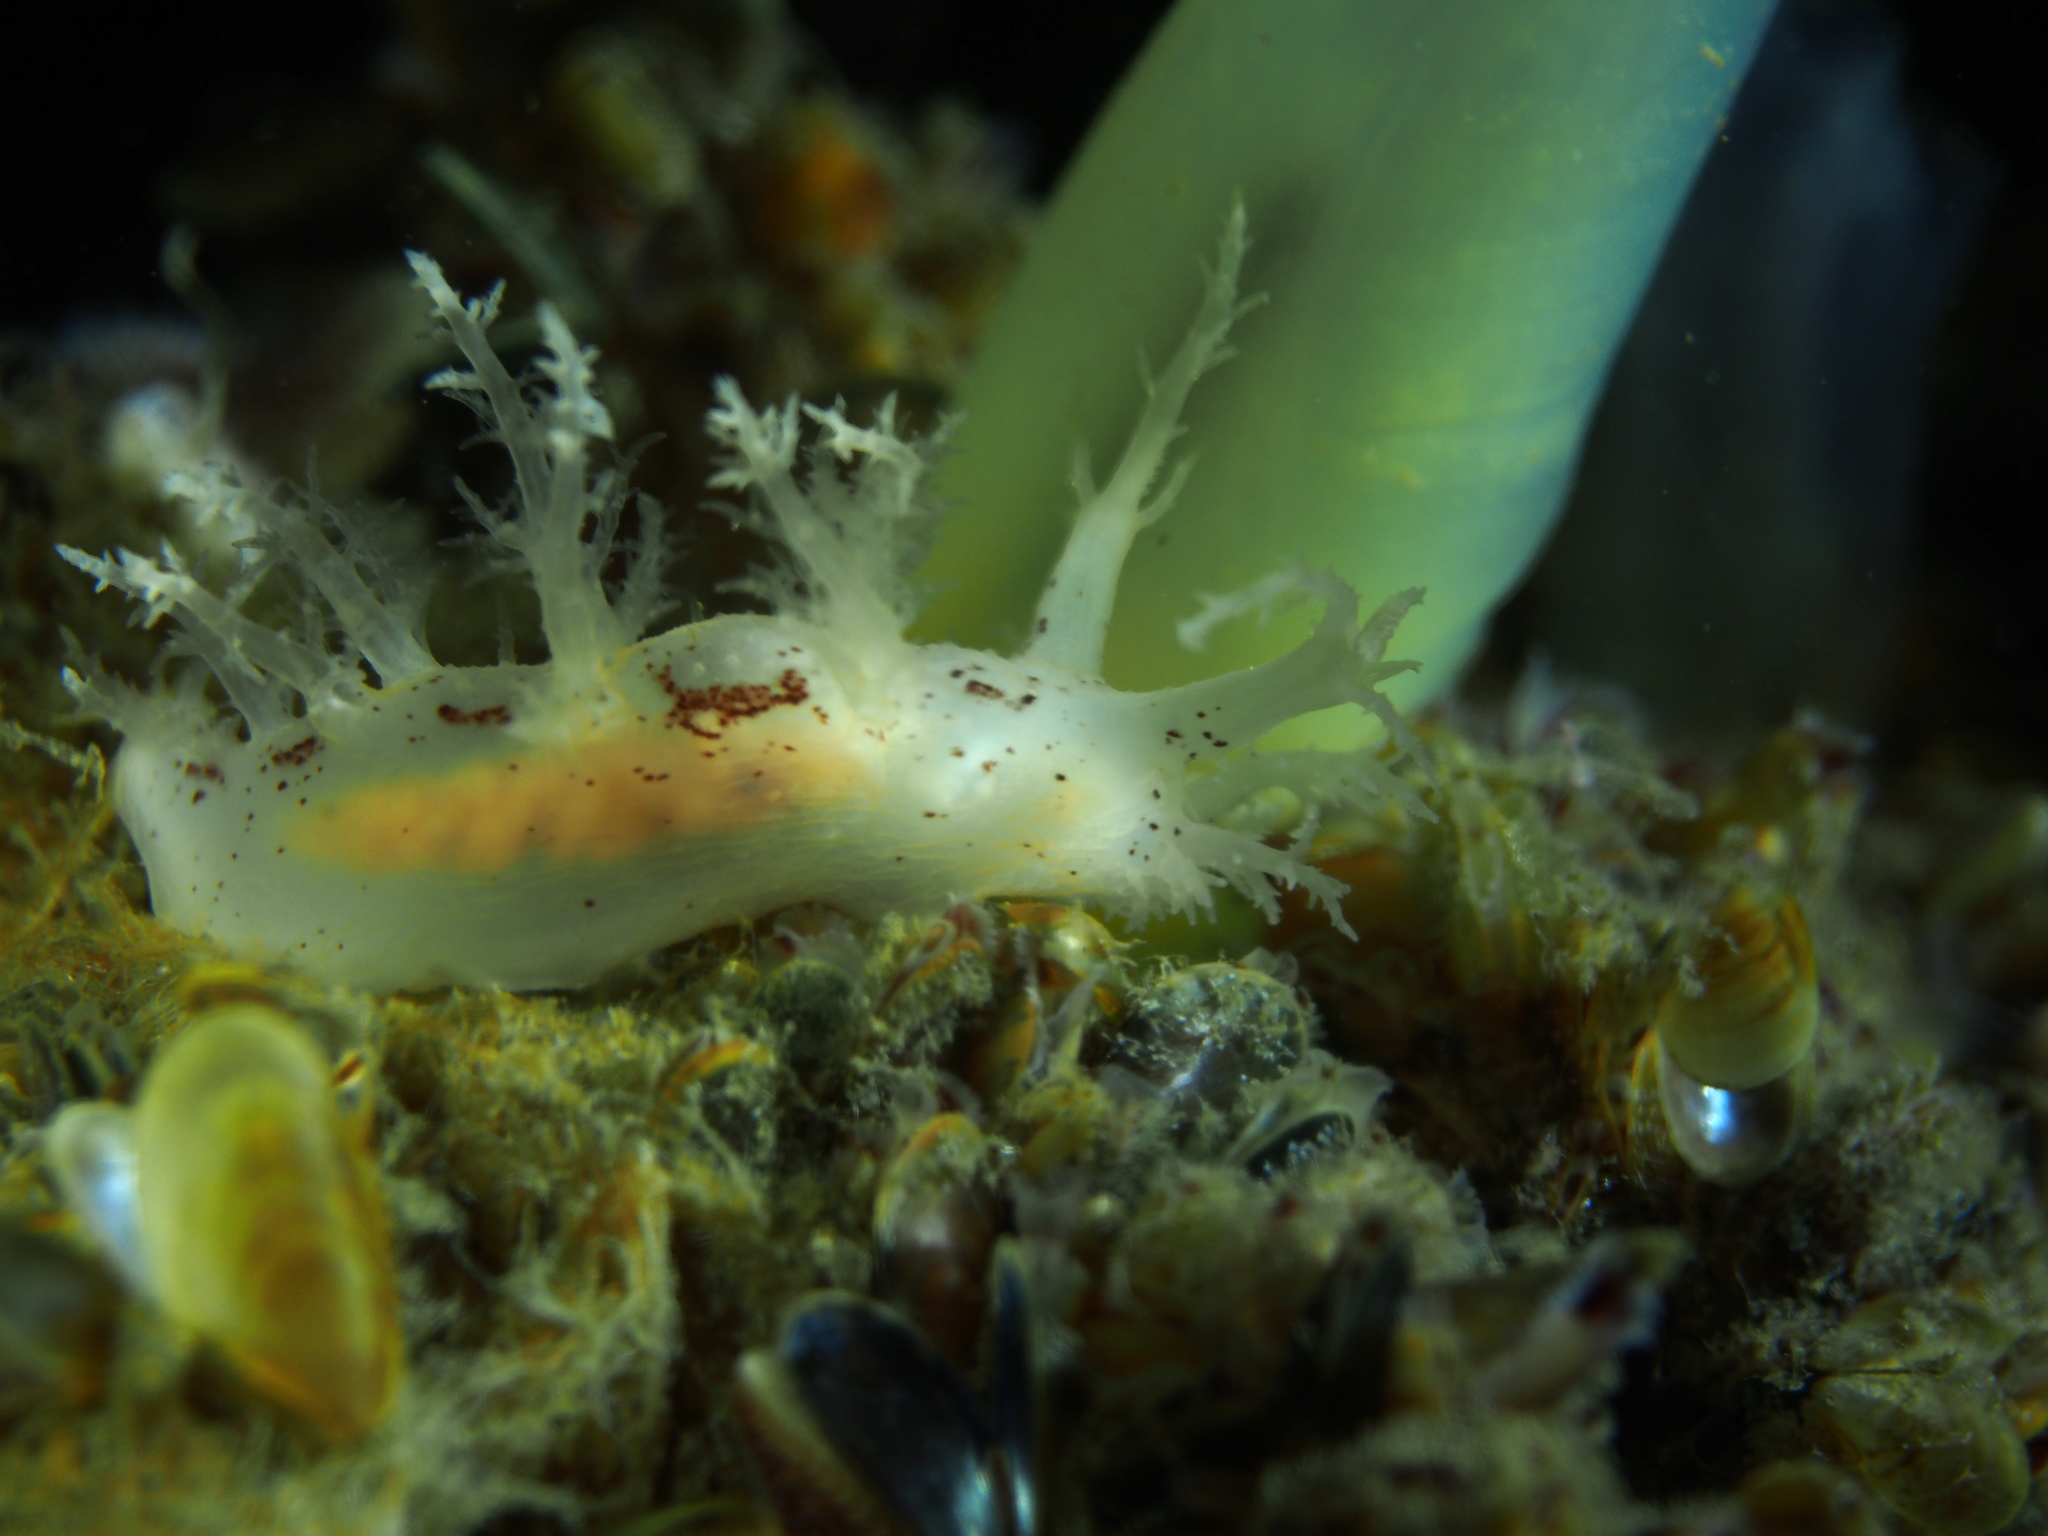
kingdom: Animalia
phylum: Mollusca
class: Gastropoda
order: Nudibranchia
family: Dendronotidae
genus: Dendronotus
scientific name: Dendronotus lacteus
